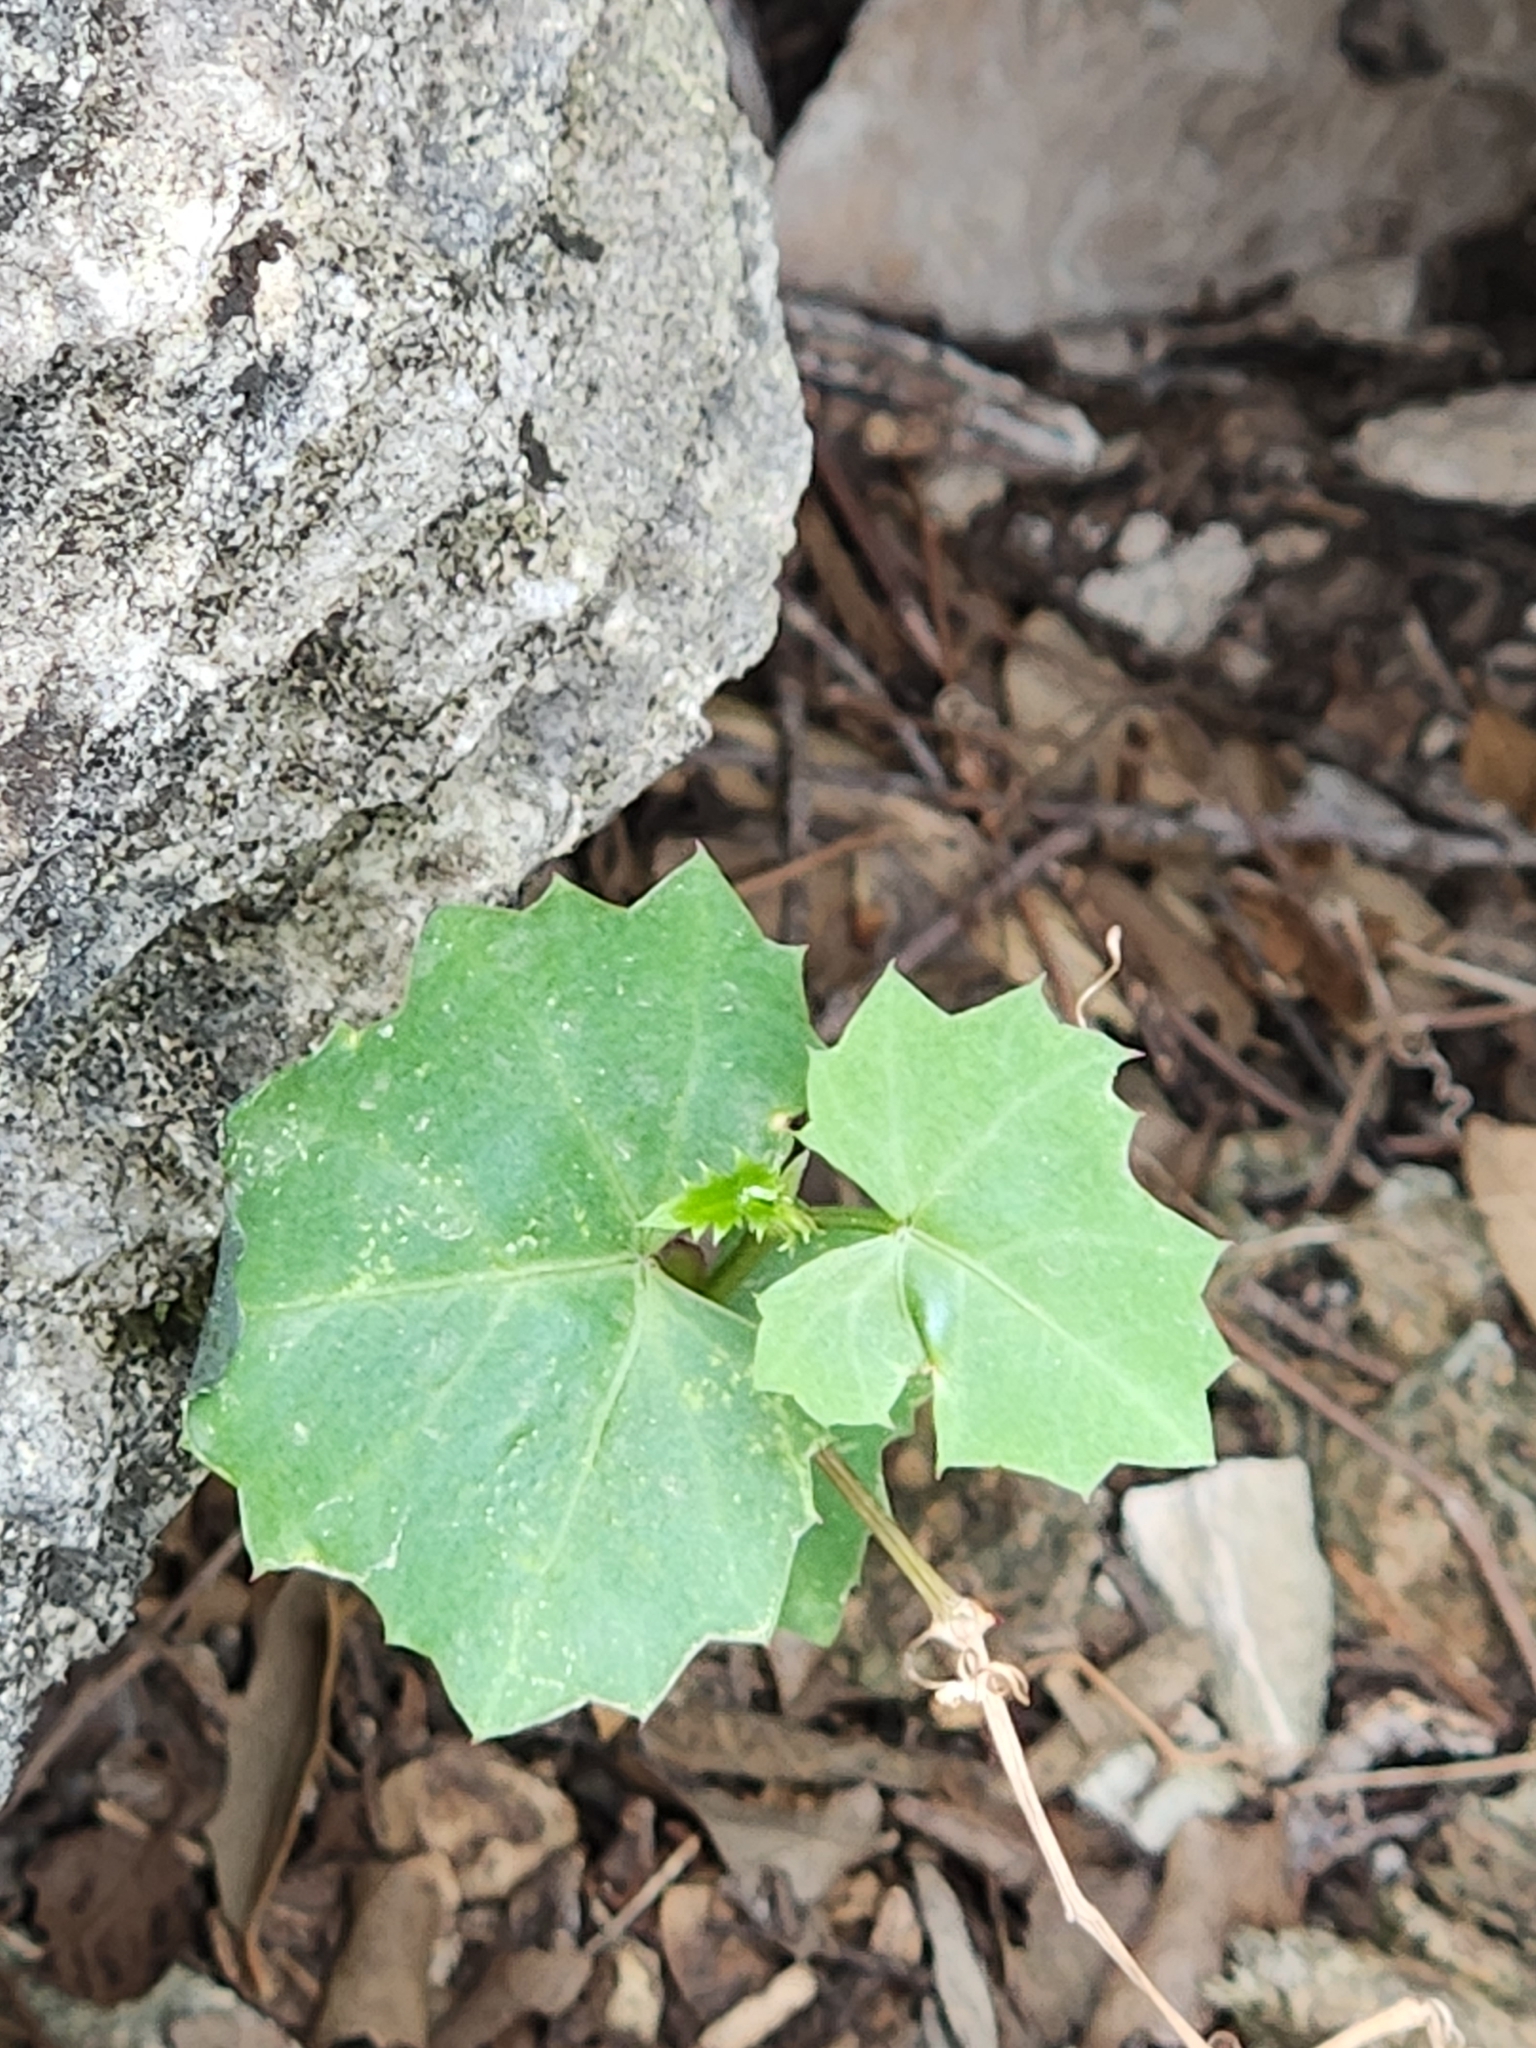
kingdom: Plantae
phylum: Tracheophyta
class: Magnoliopsida
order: Vitales
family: Vitaceae
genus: Cissus
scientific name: Cissus trifoliata
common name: Vine-sorrel
